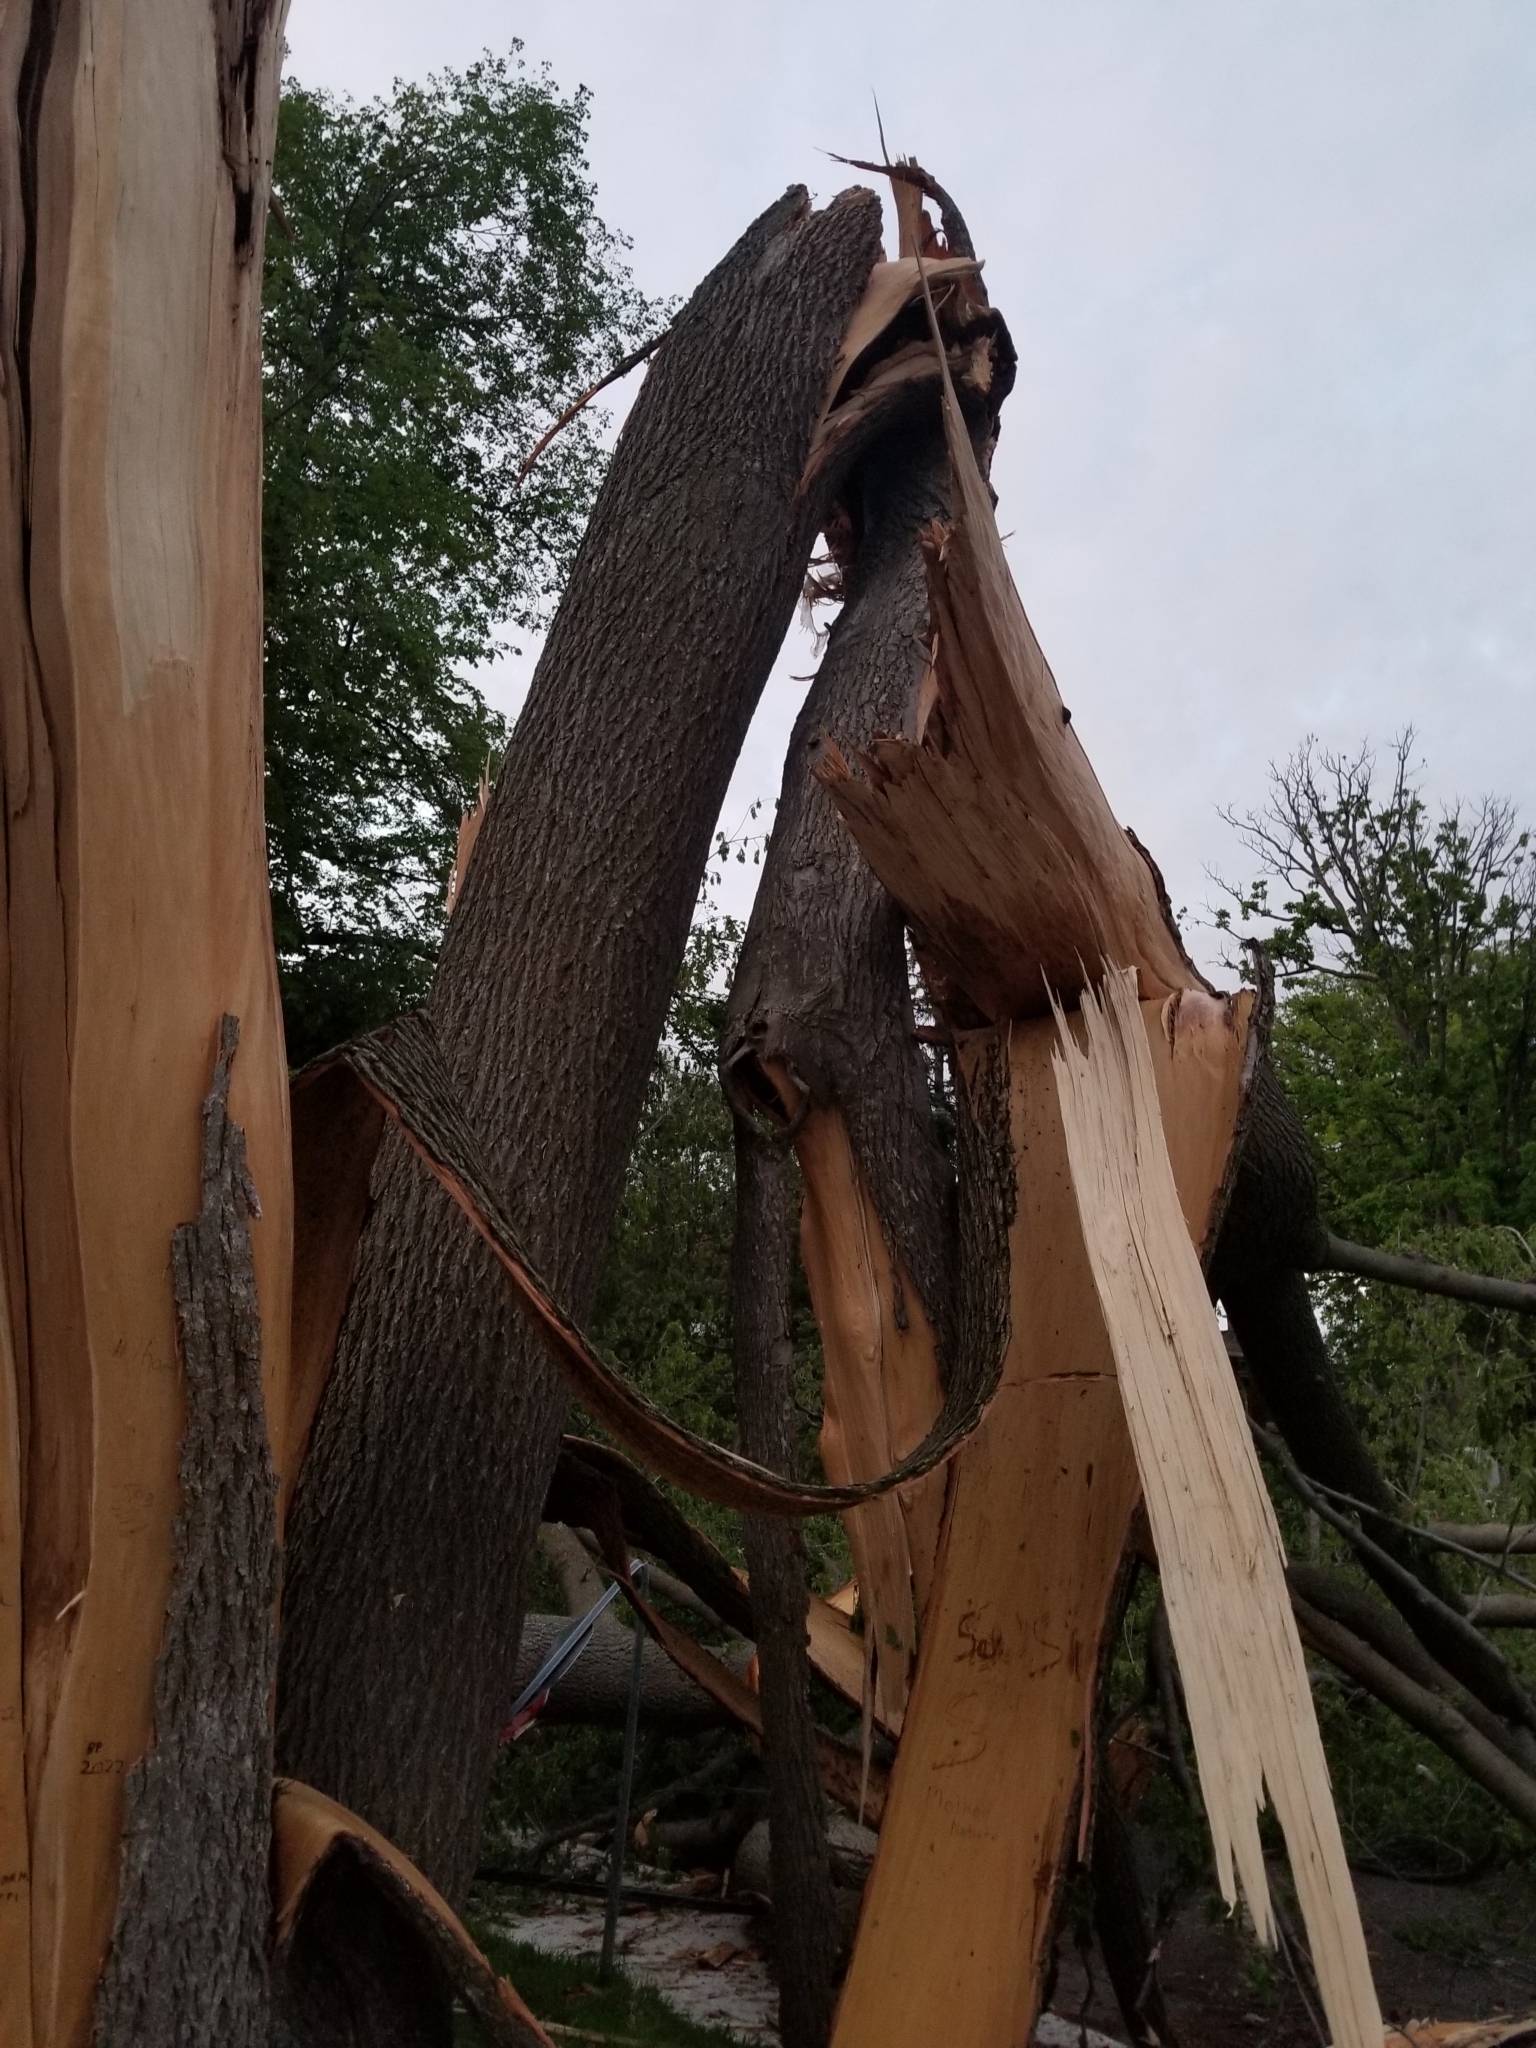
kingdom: Plantae
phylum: Tracheophyta
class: Magnoliopsida
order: Fagales
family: Juglandaceae
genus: Juglans
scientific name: Juglans nigra
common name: Black walnut
